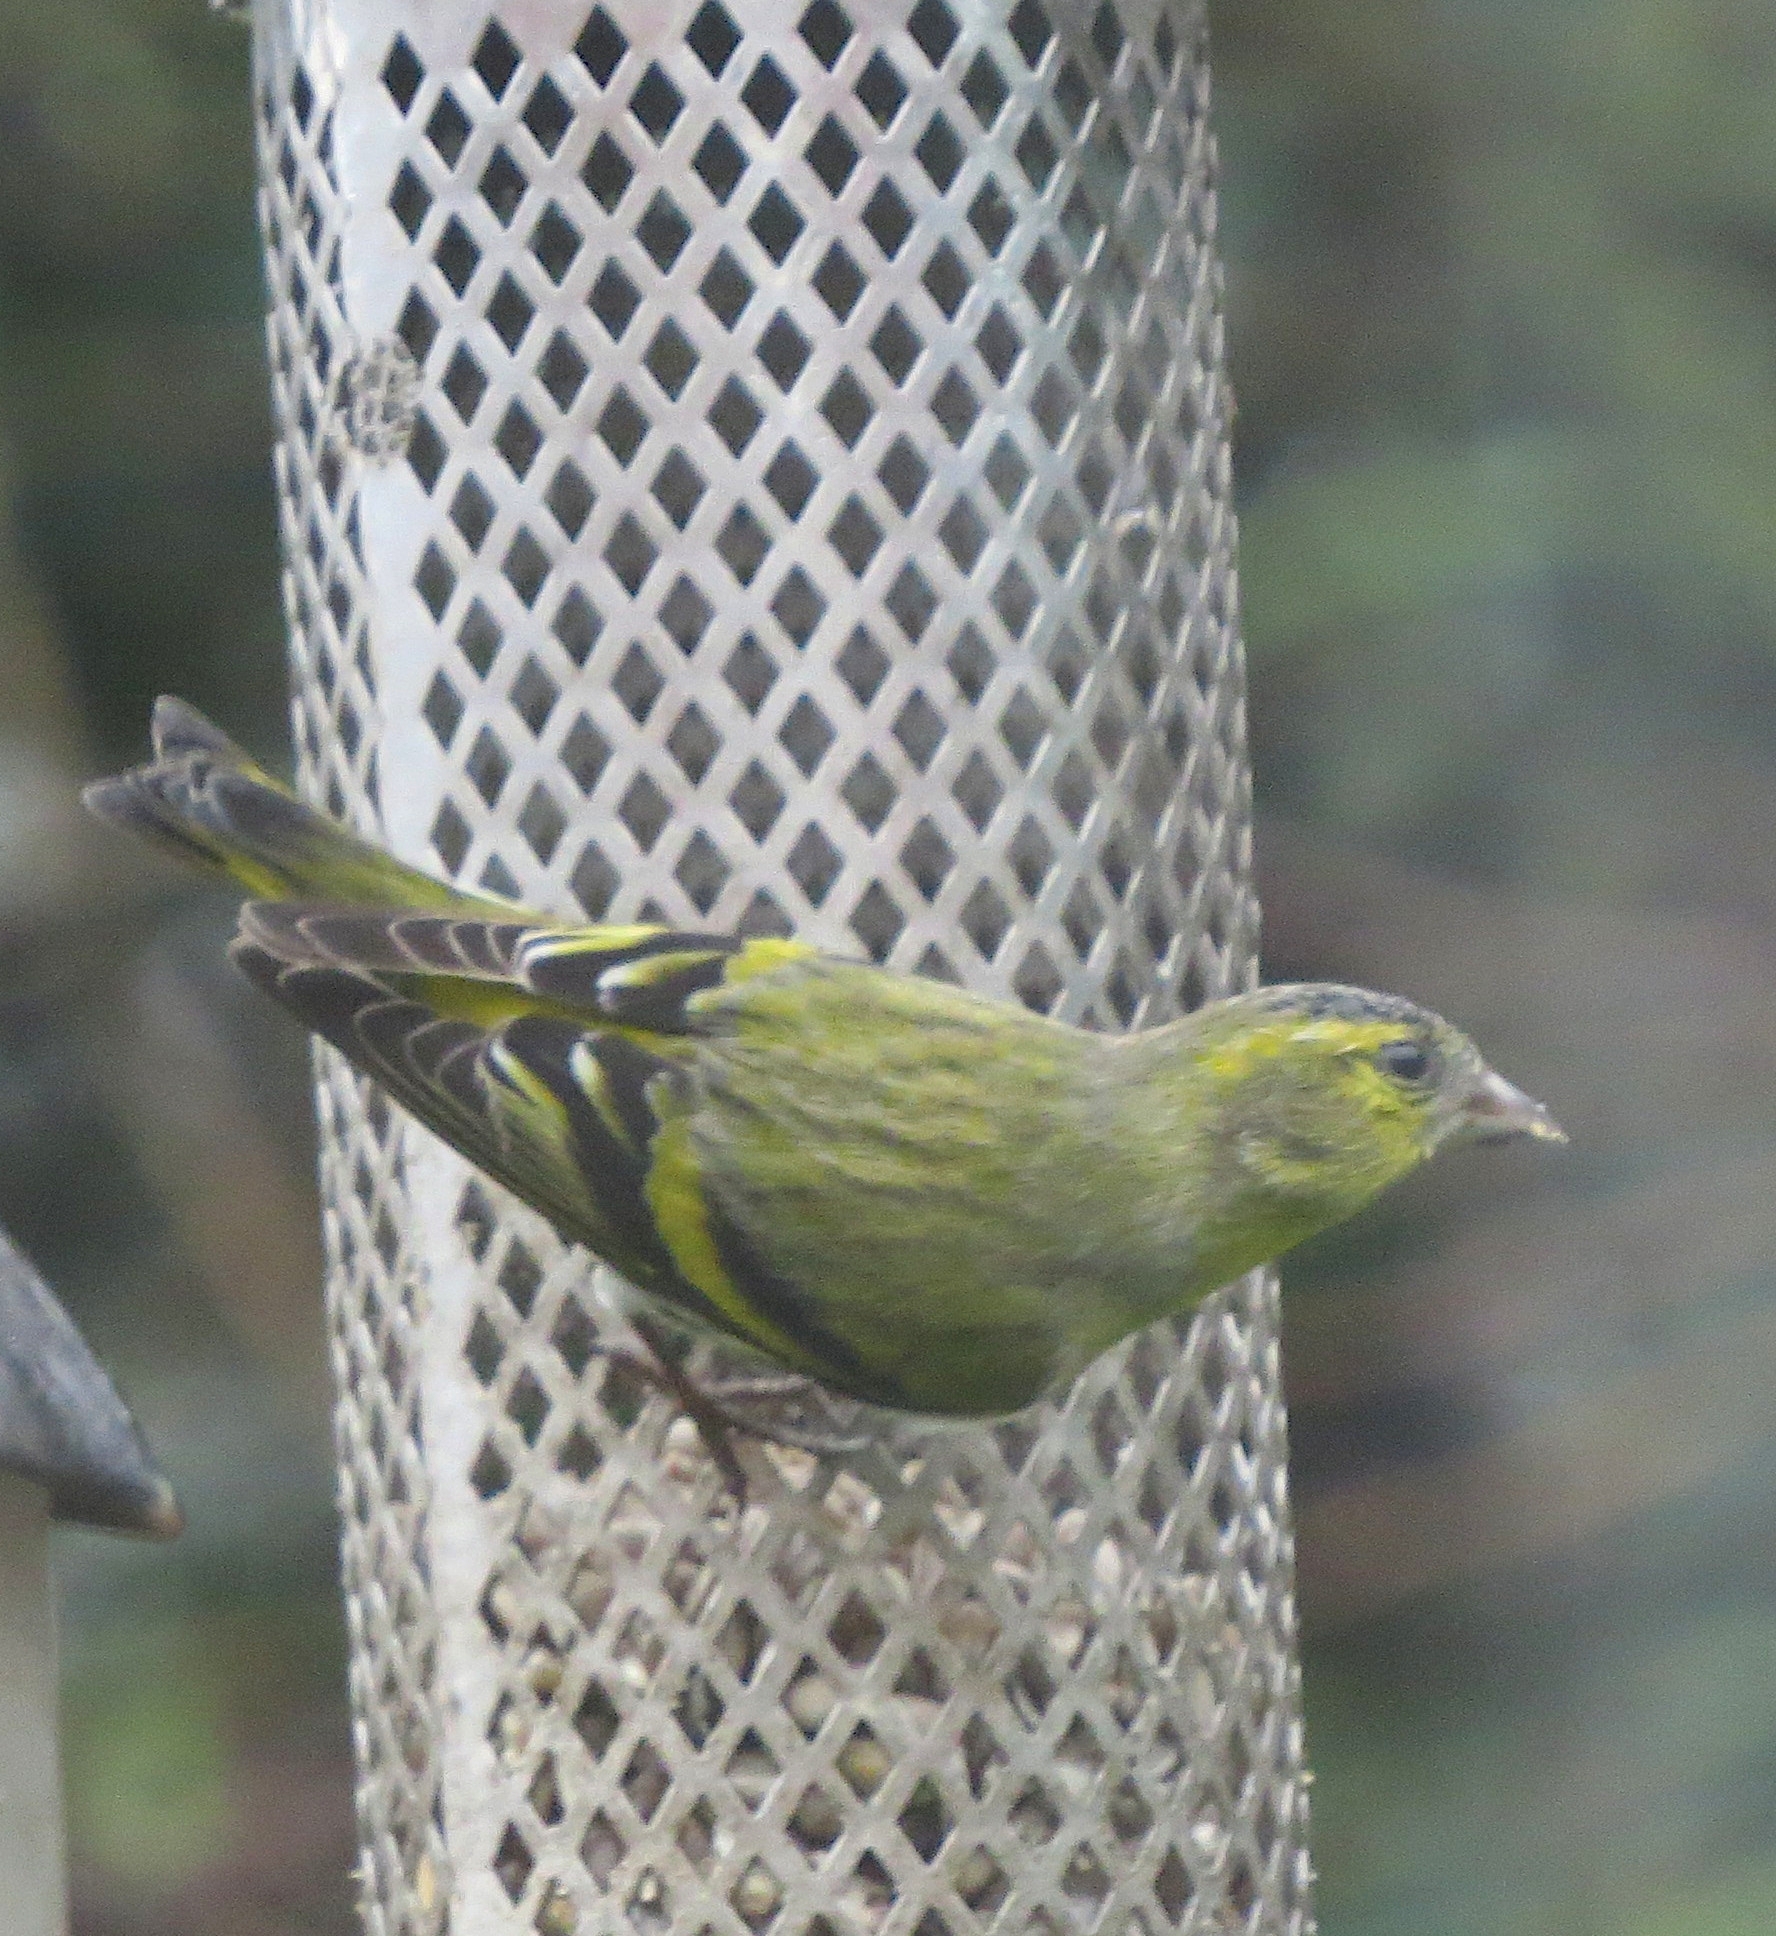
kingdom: Animalia
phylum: Chordata
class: Aves
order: Passeriformes
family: Fringillidae
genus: Spinus
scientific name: Spinus spinus
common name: Eurasian siskin
